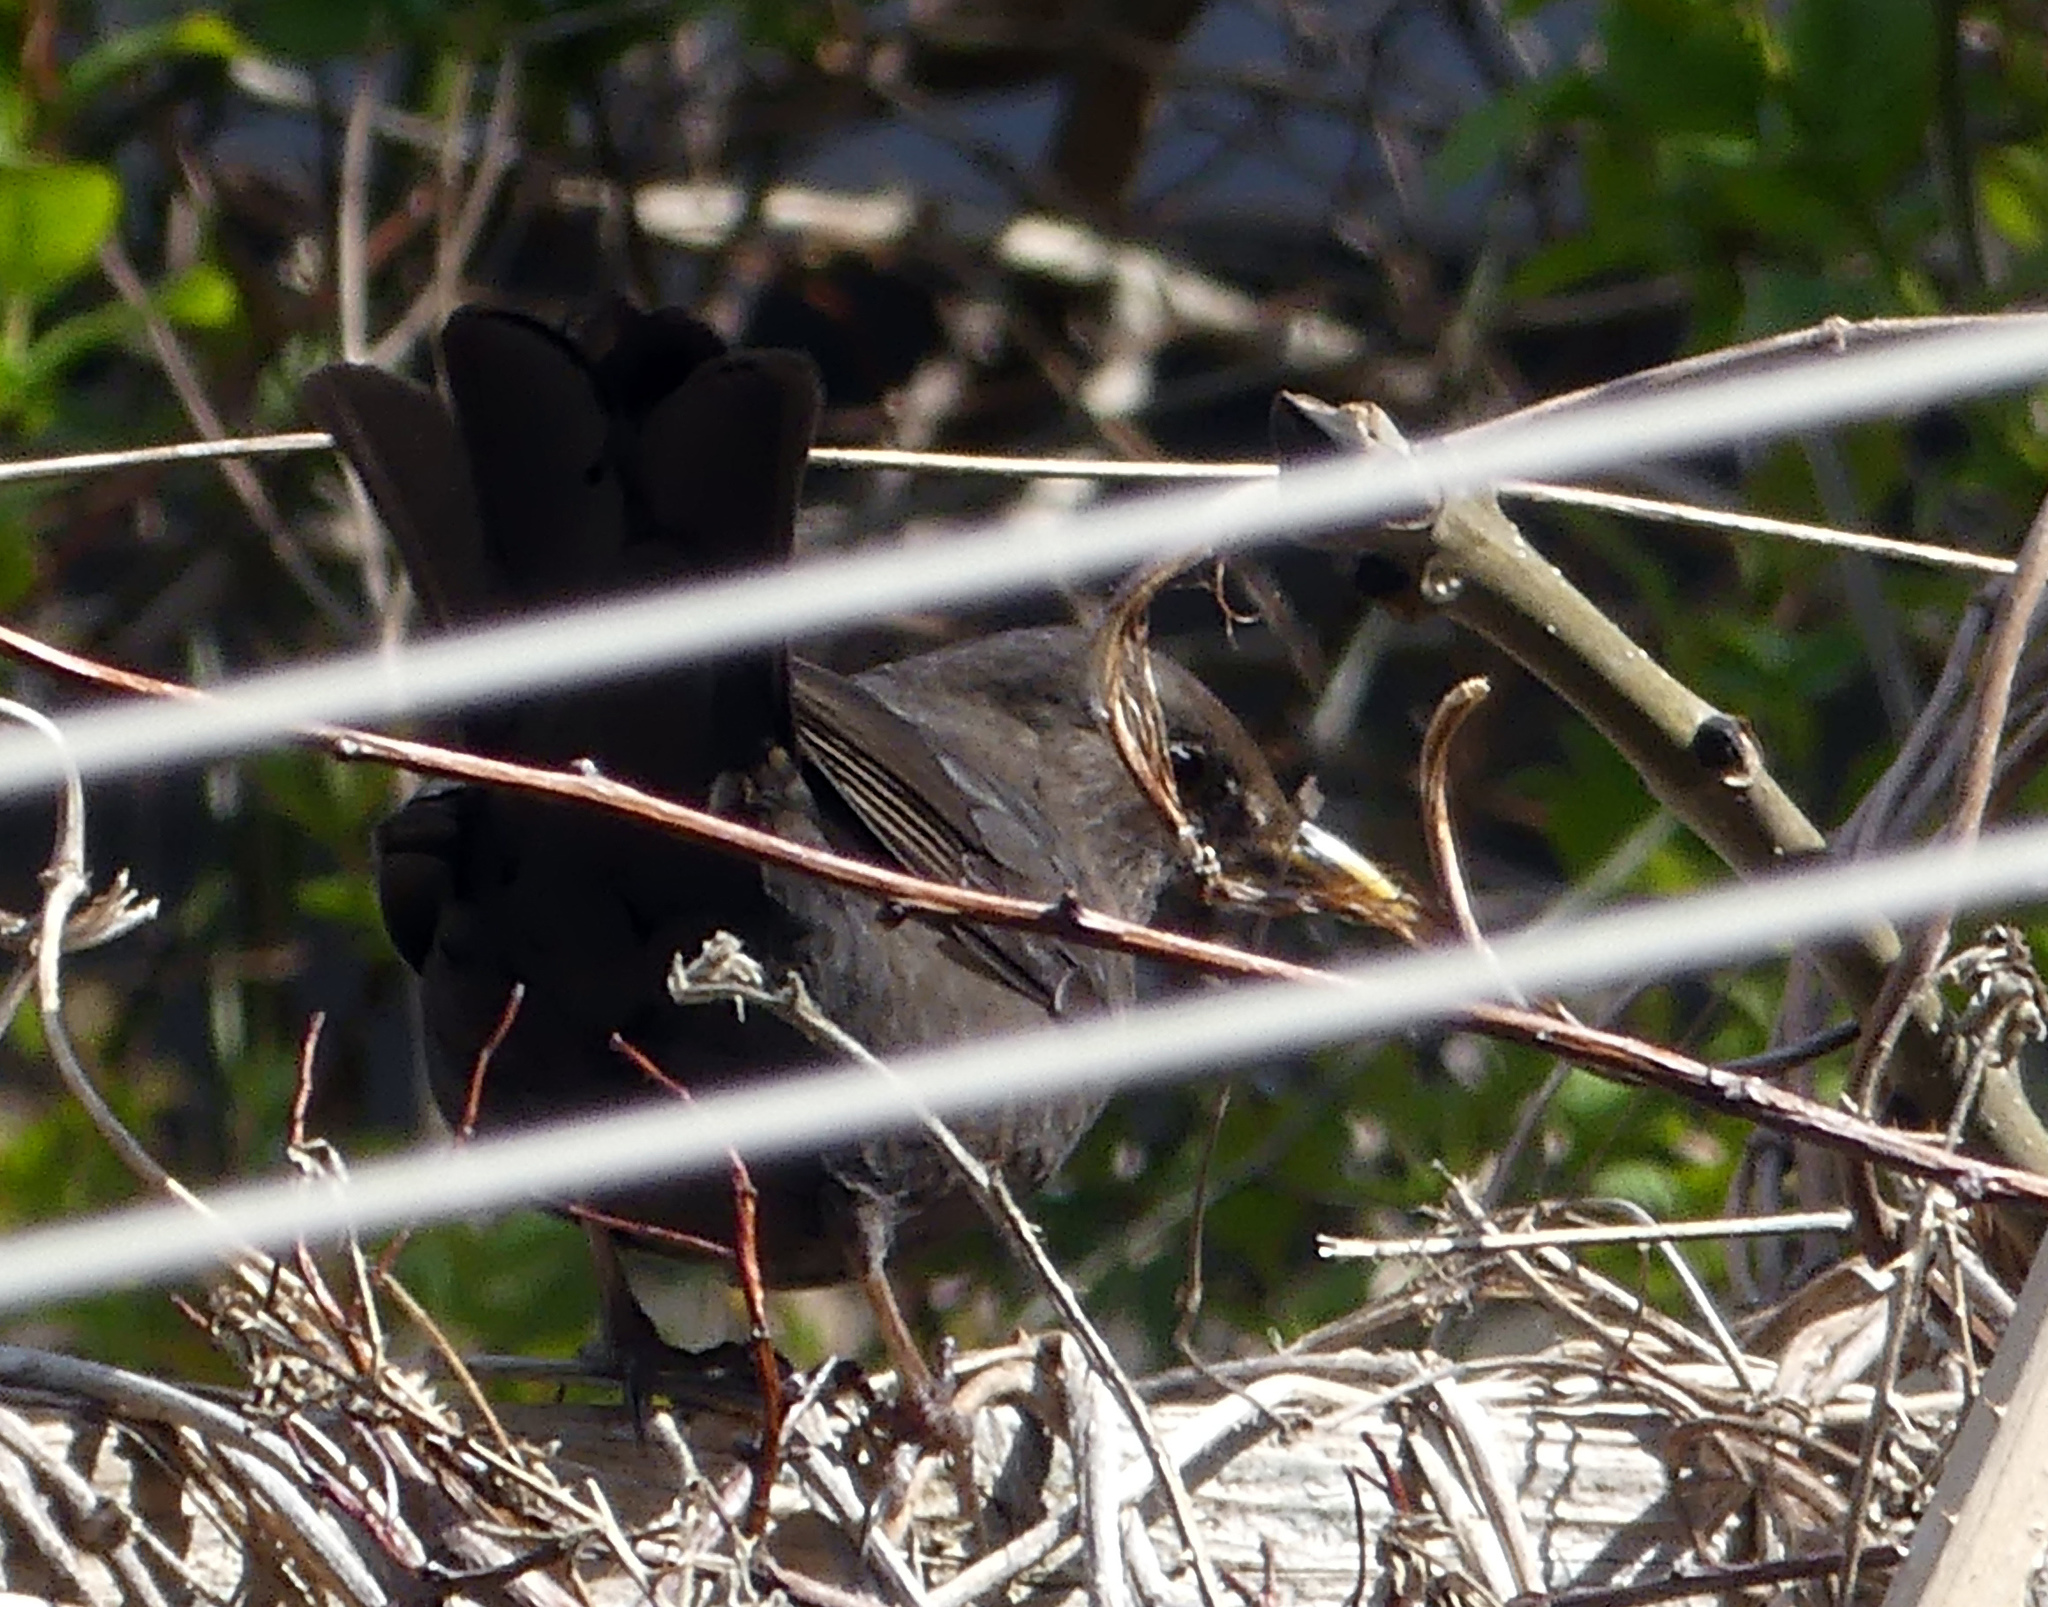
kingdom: Animalia
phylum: Chordata
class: Aves
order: Passeriformes
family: Turdidae
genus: Turdus
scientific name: Turdus merula
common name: Common blackbird
